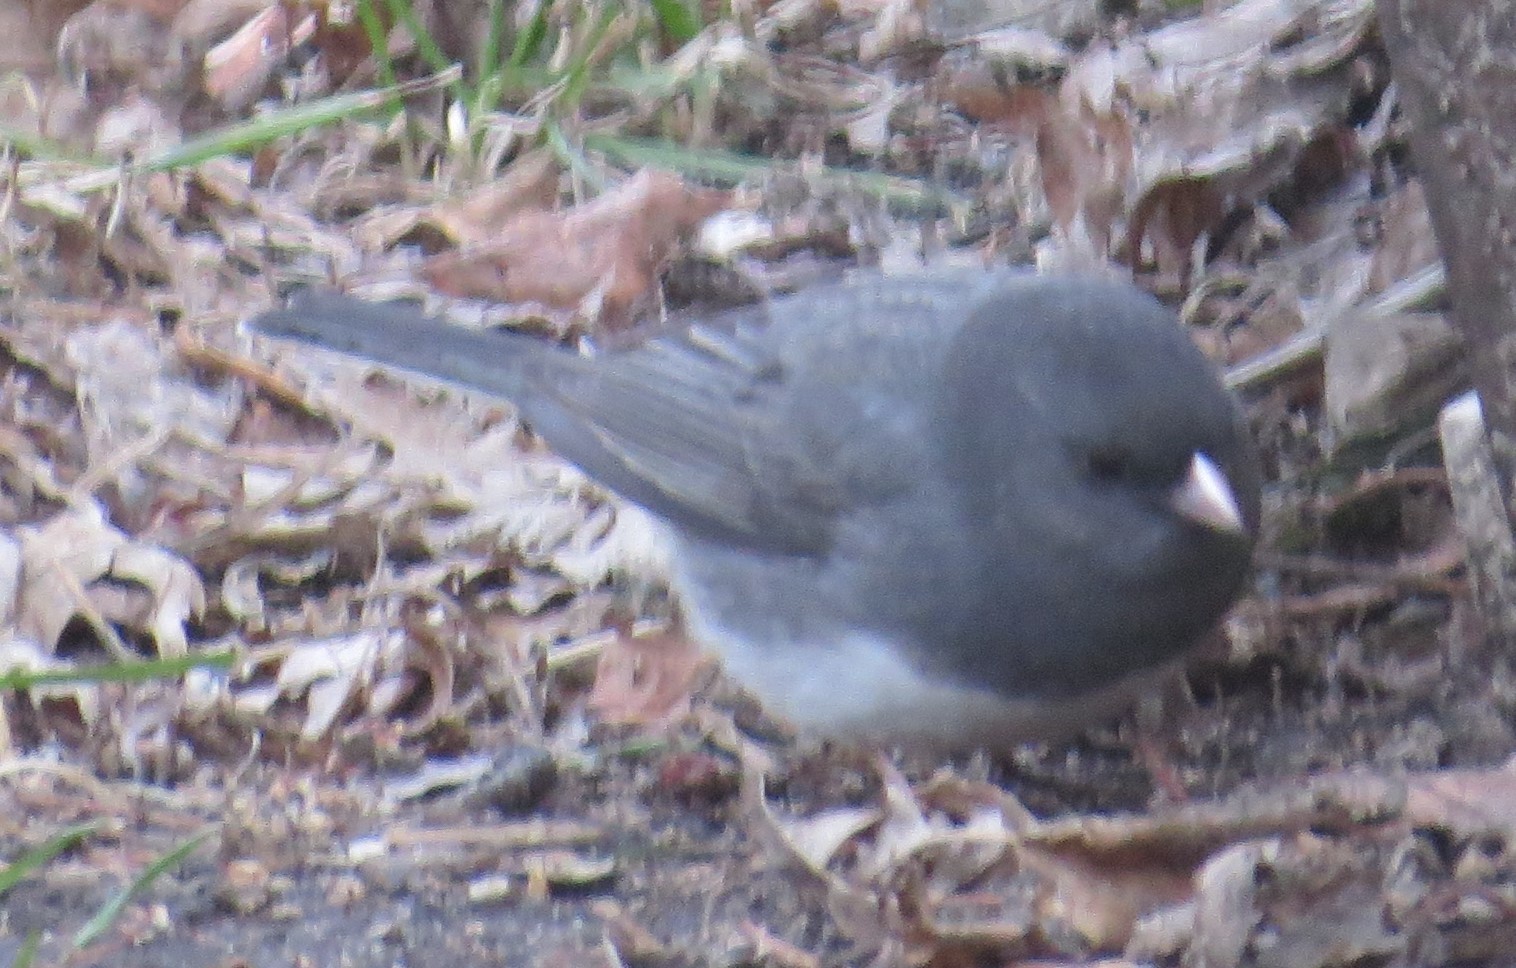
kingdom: Animalia
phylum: Chordata
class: Aves
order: Passeriformes
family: Passerellidae
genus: Junco
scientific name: Junco hyemalis
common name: Dark-eyed junco
